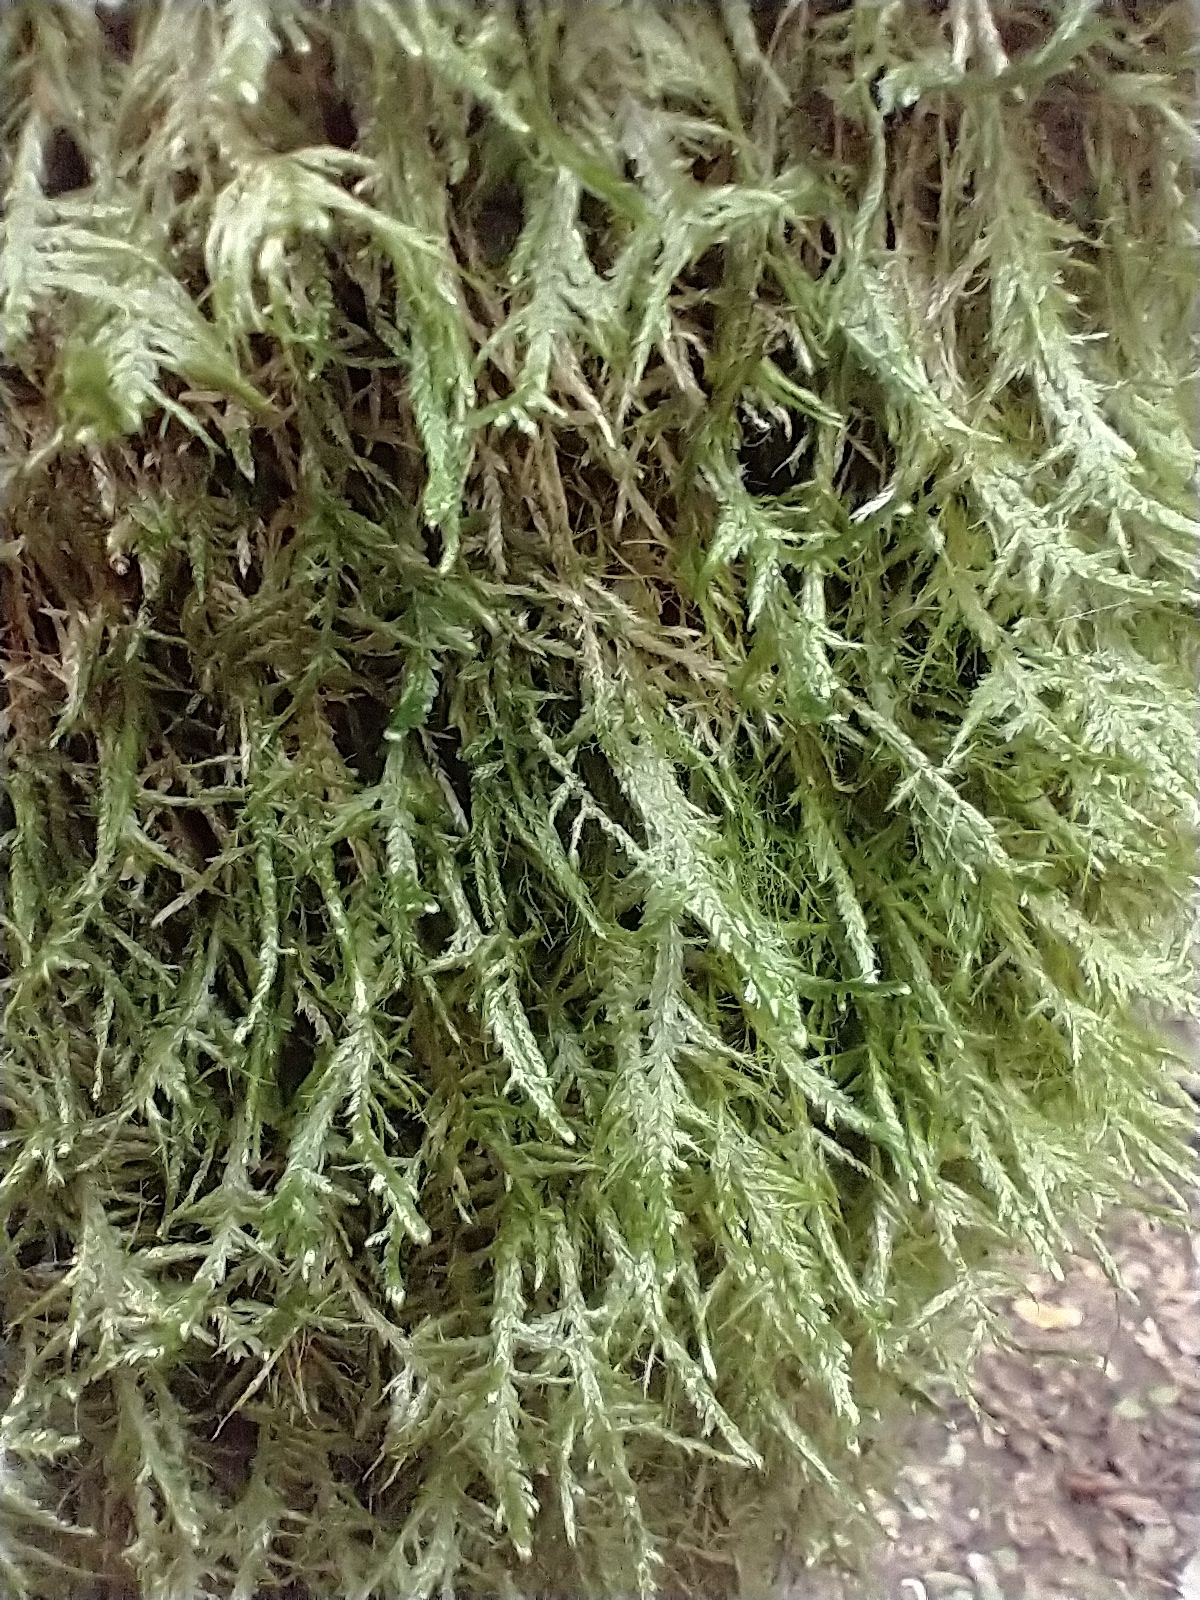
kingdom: Plantae
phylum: Bryophyta
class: Bryopsida
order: Hypnales
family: Neckeraceae
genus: Alleniella
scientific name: Alleniella complanata
